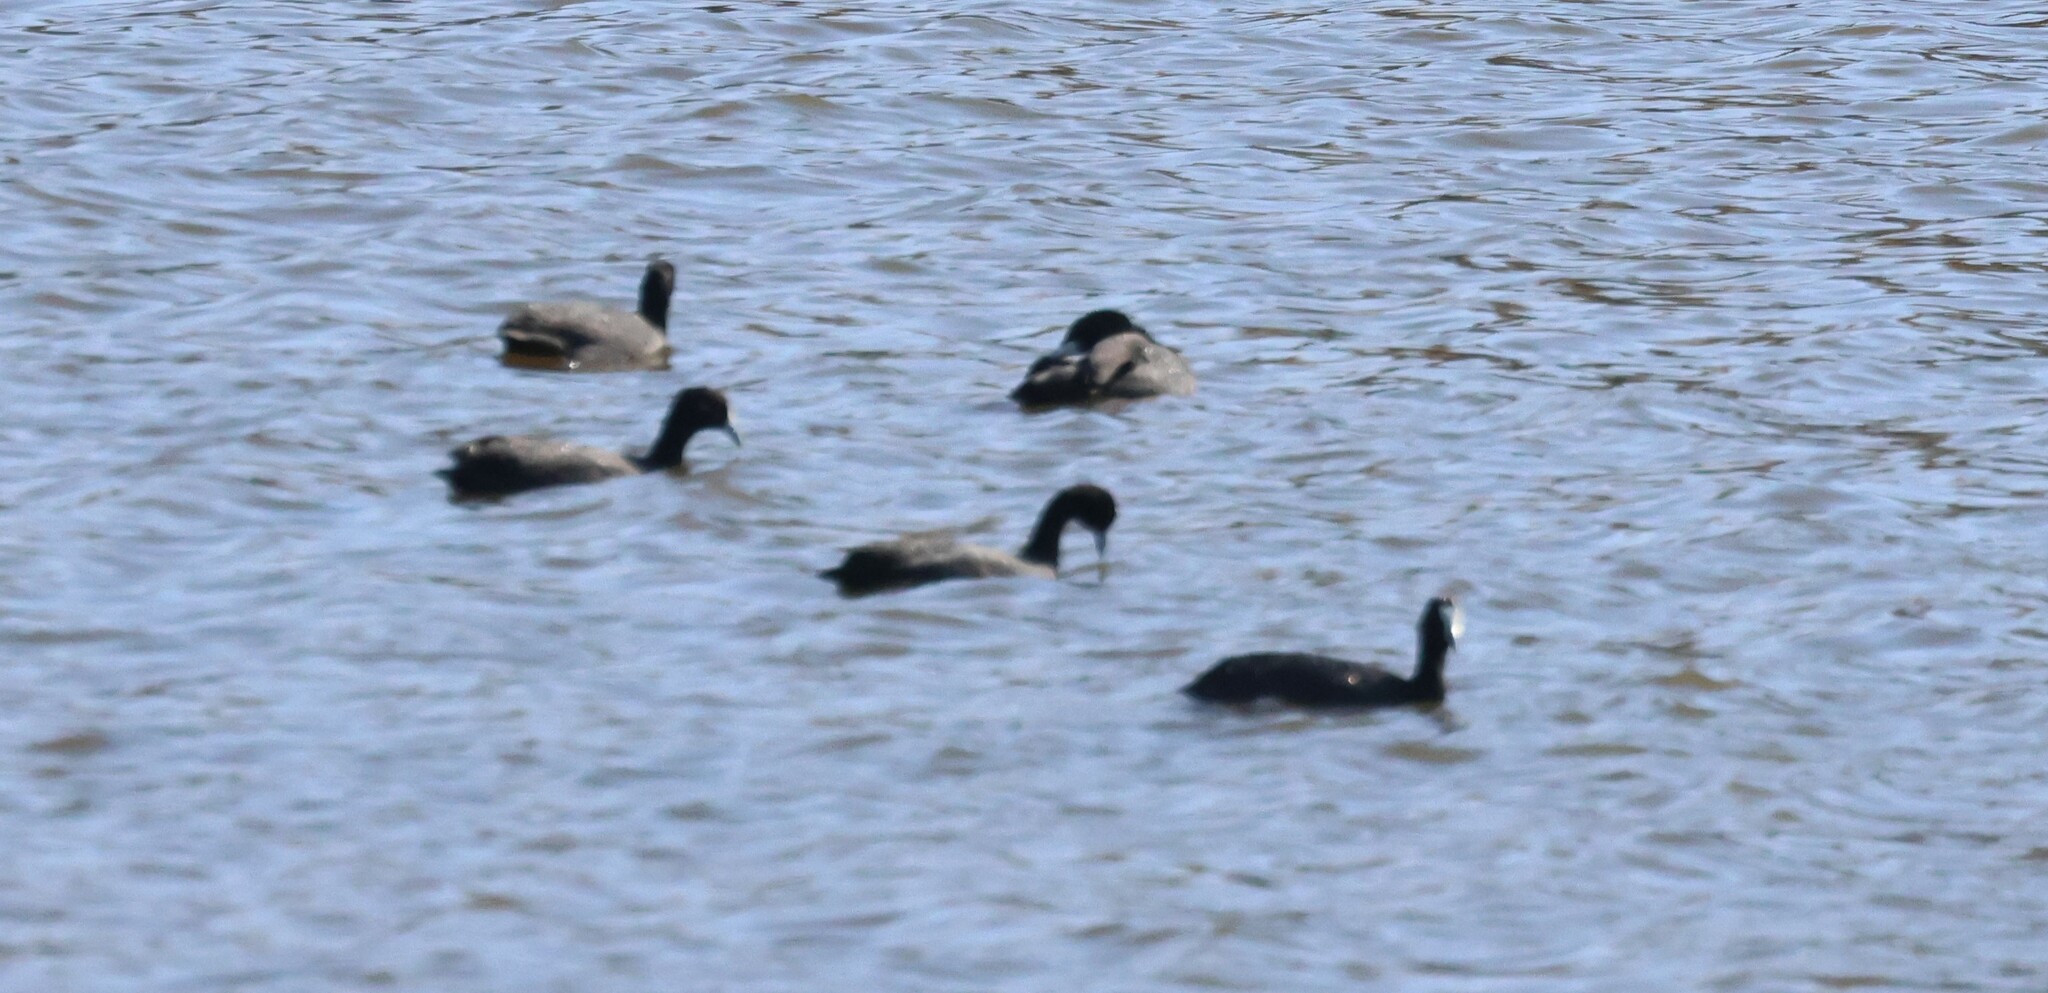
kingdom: Animalia
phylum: Chordata
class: Aves
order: Gruiformes
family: Rallidae
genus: Fulica
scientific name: Fulica cristata
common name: Red-knobbed coot
